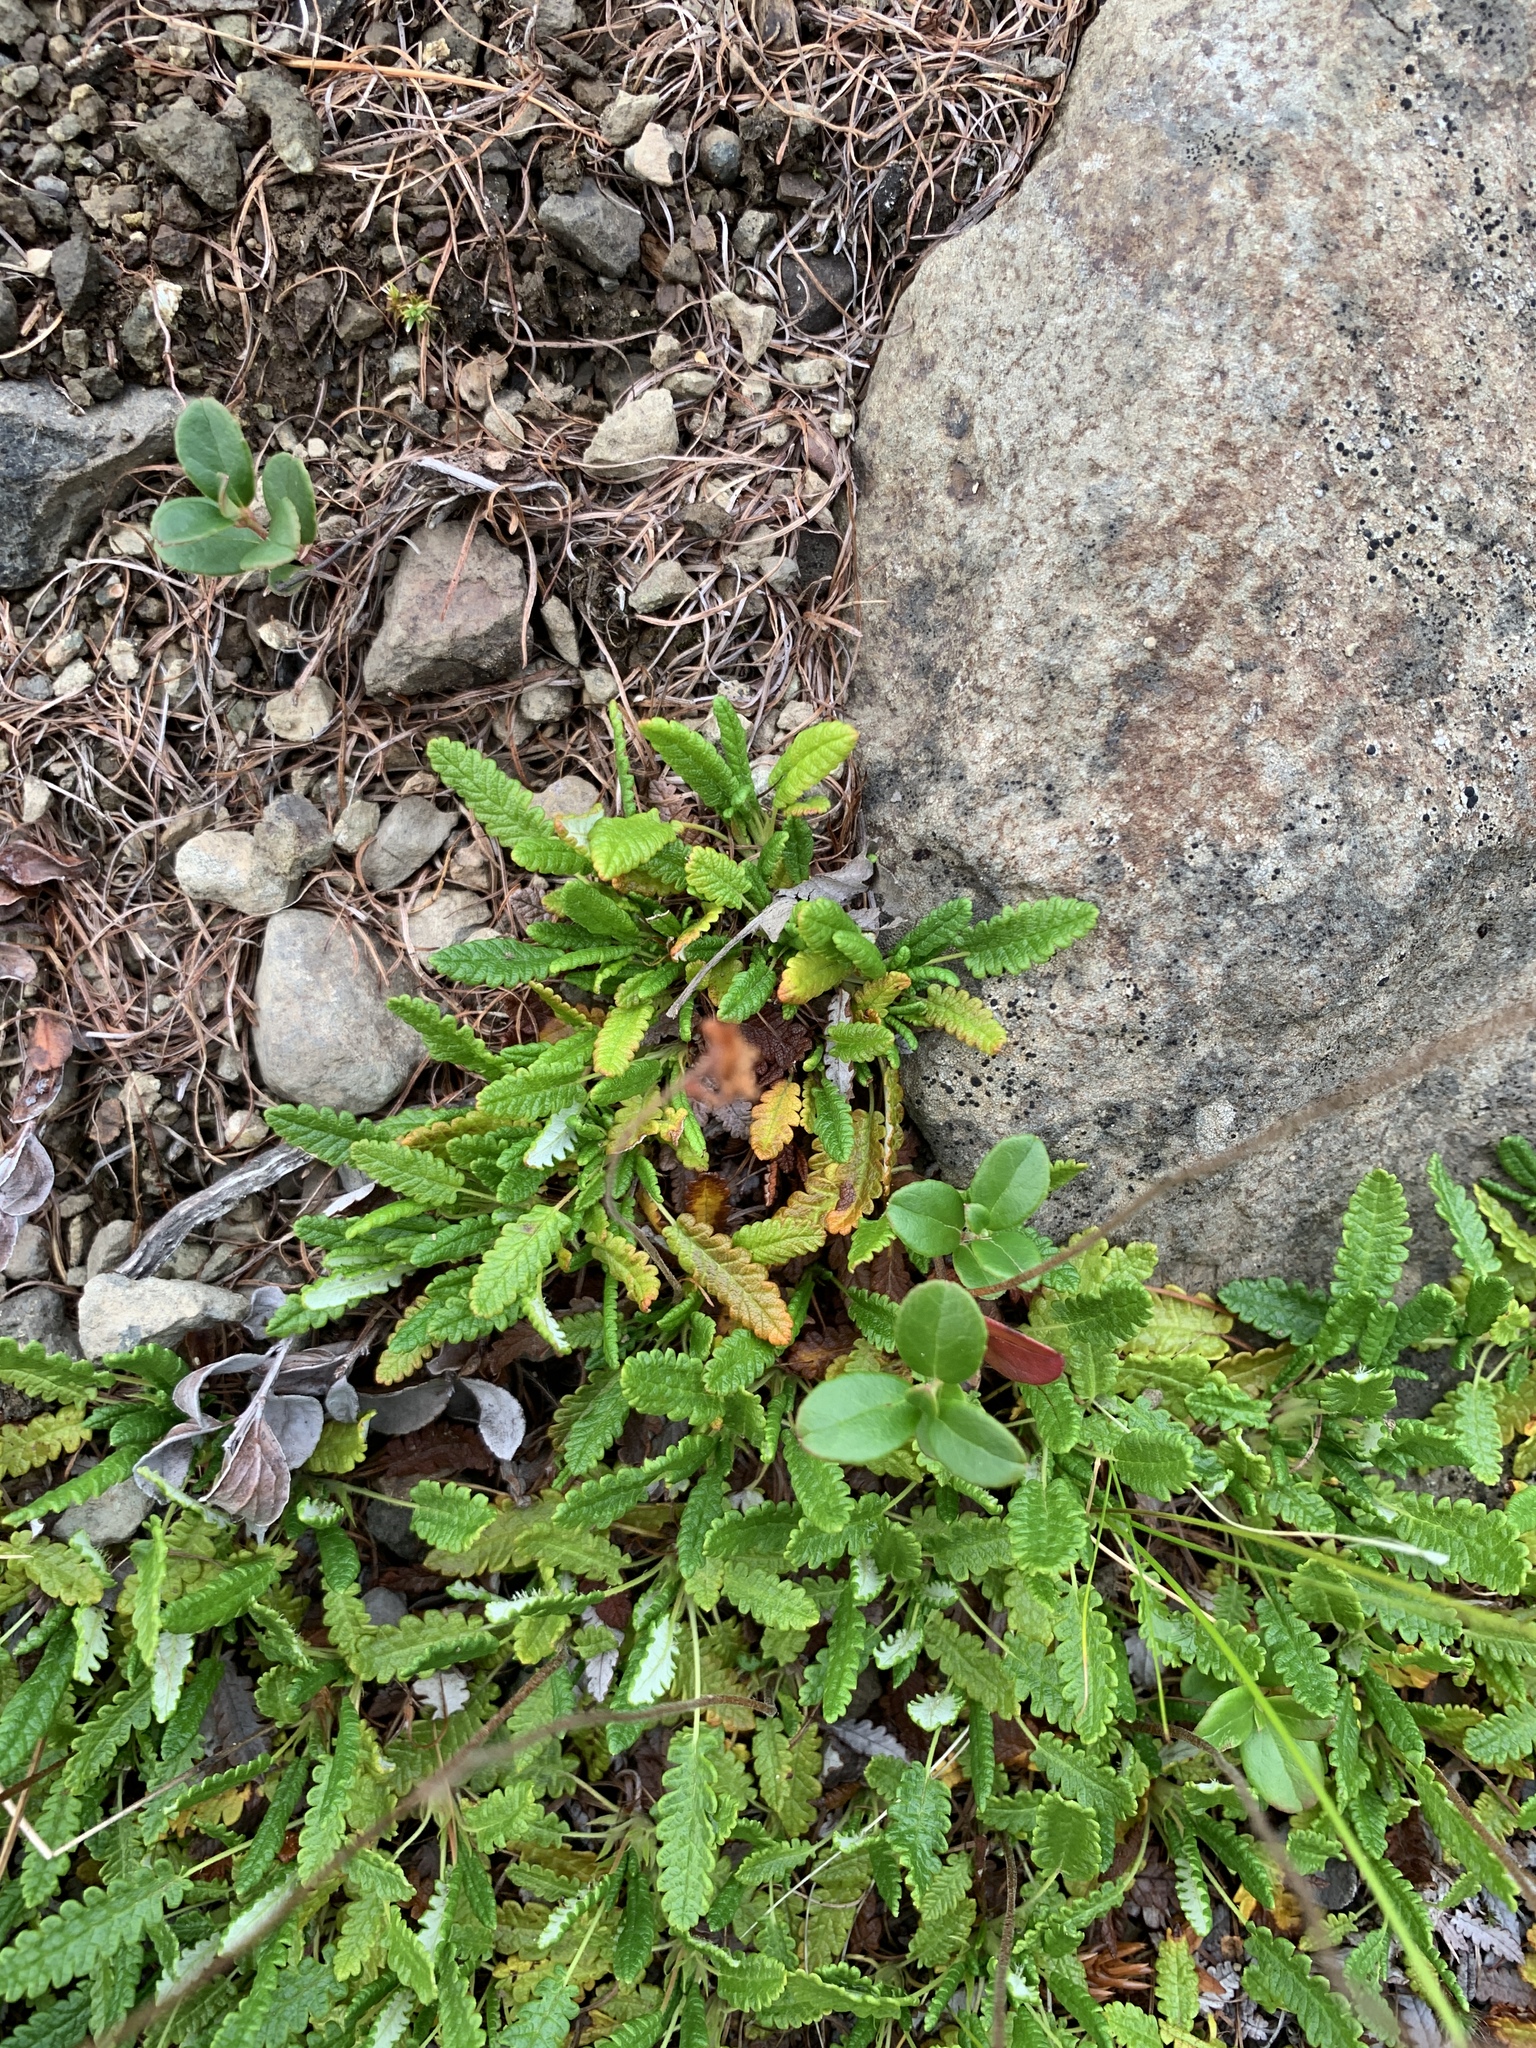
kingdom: Plantae
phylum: Tracheophyta
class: Magnoliopsida
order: Rosales
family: Rosaceae
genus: Dryas
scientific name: Dryas octopetala
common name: Eight-petal mountain-avens
